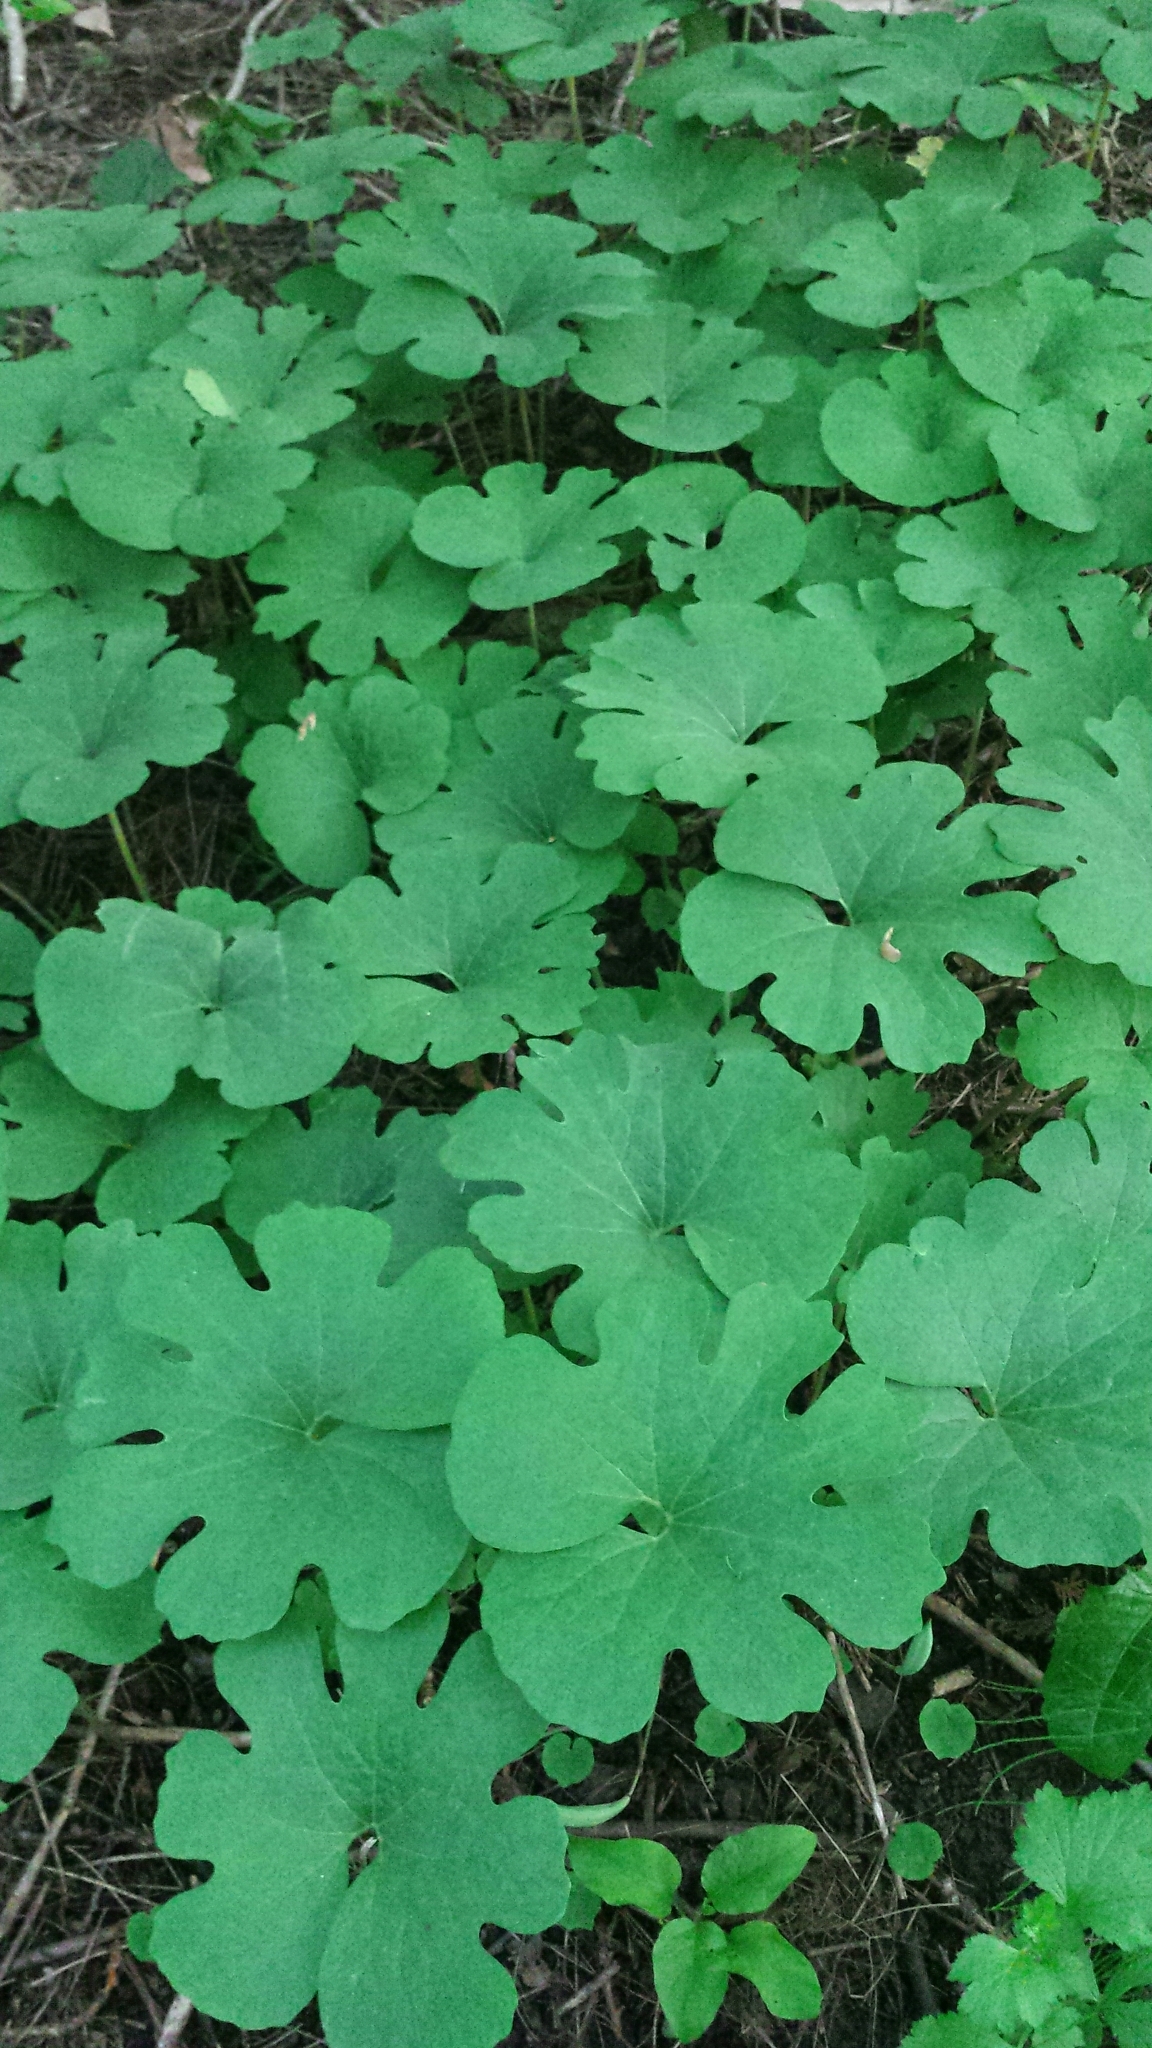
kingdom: Plantae
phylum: Tracheophyta
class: Magnoliopsida
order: Ranunculales
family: Papaveraceae
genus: Sanguinaria
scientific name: Sanguinaria canadensis
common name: Bloodroot
